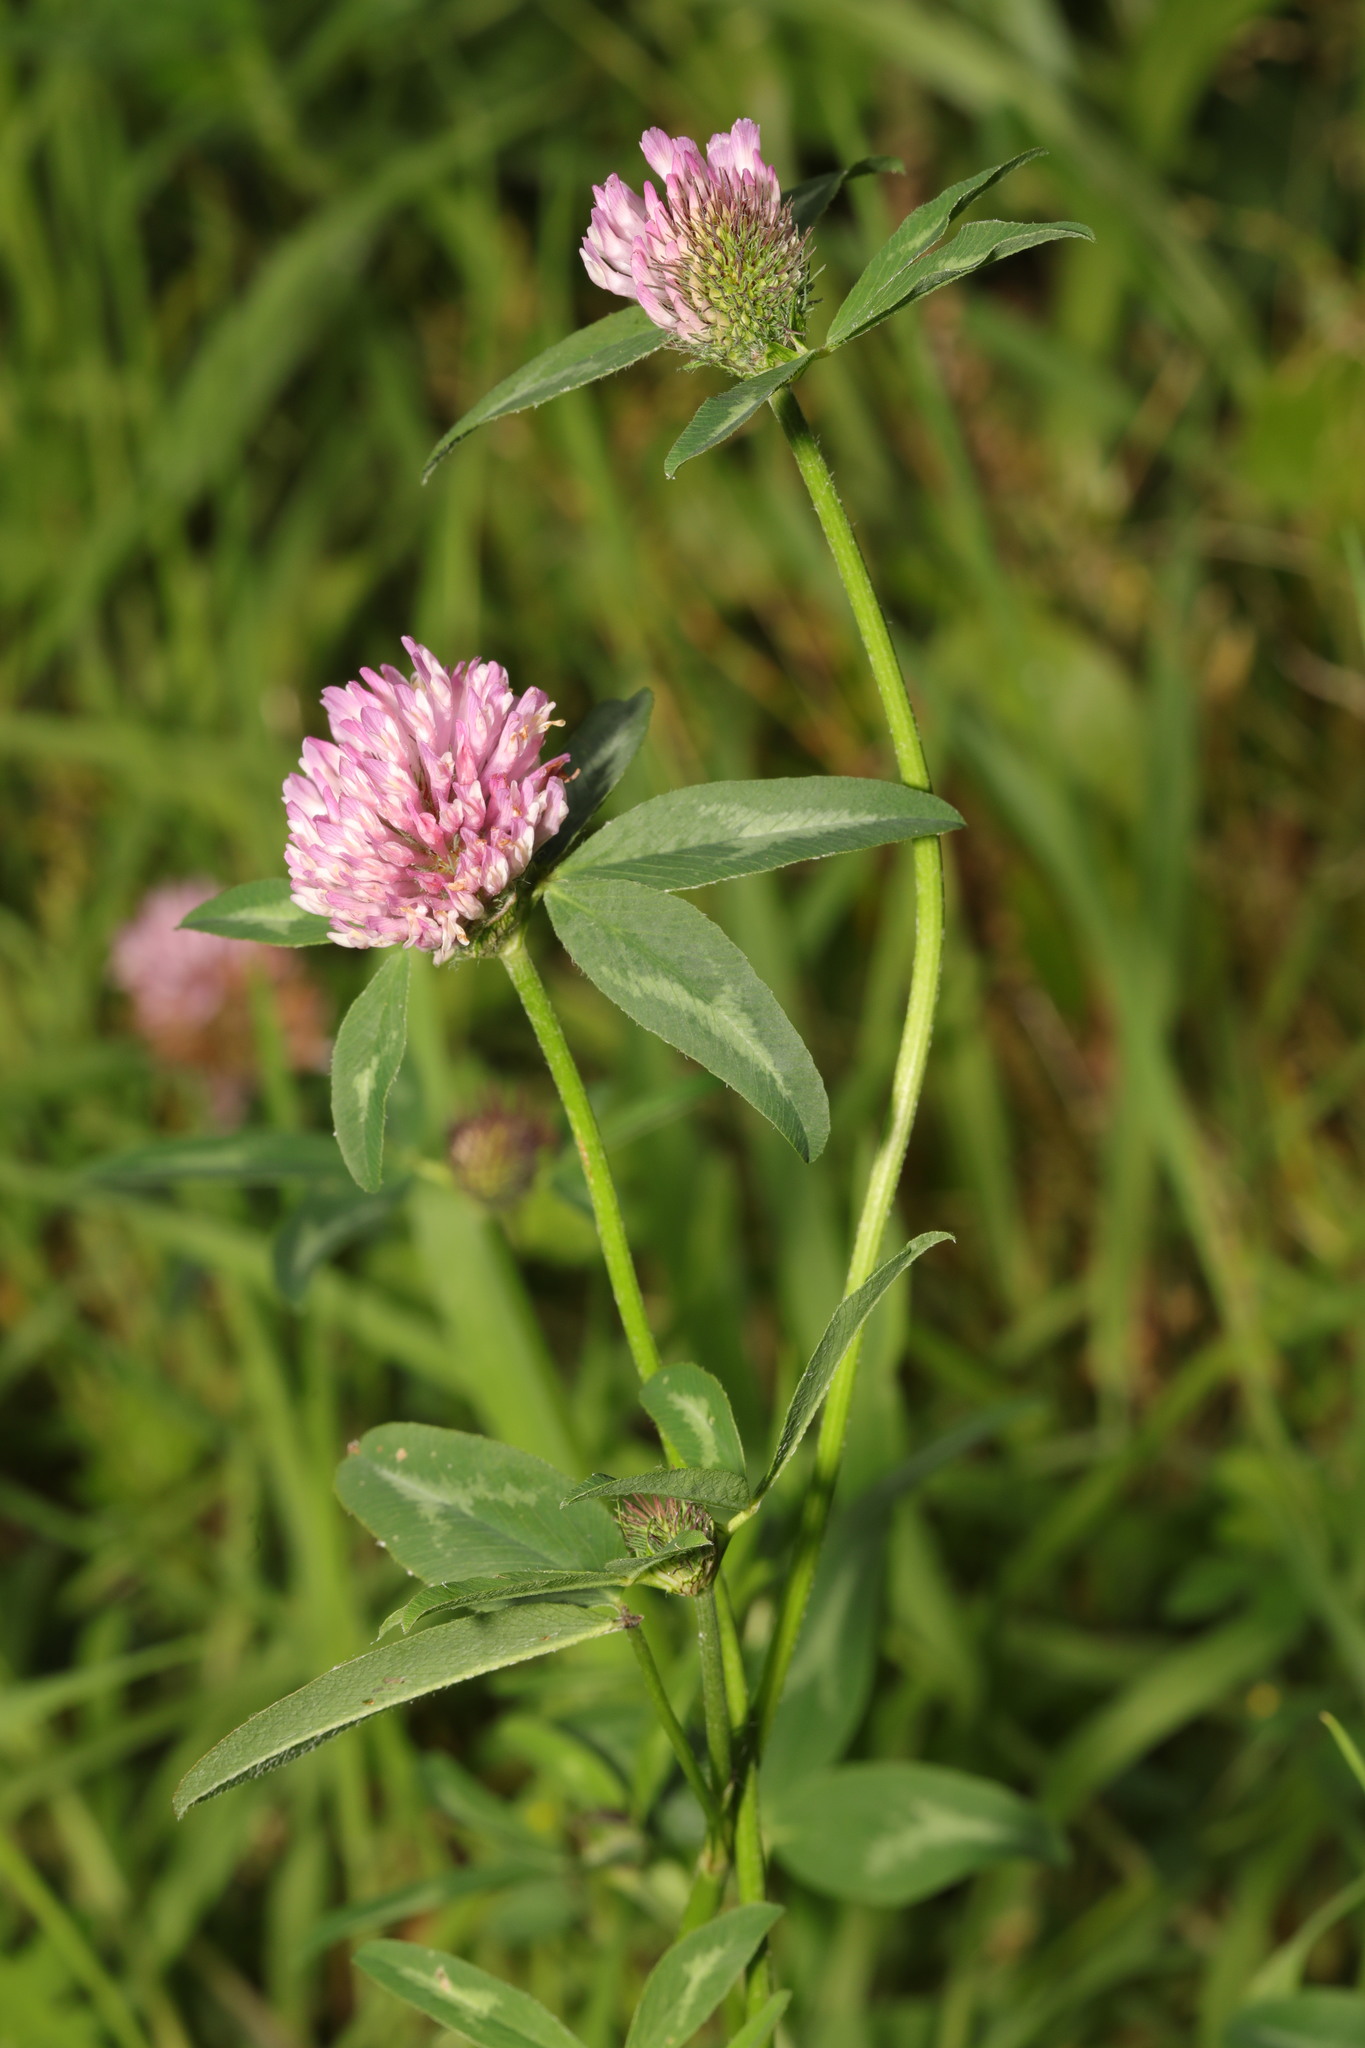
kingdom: Plantae
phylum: Tracheophyta
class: Magnoliopsida
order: Fabales
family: Fabaceae
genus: Trifolium
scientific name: Trifolium pratense
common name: Red clover
